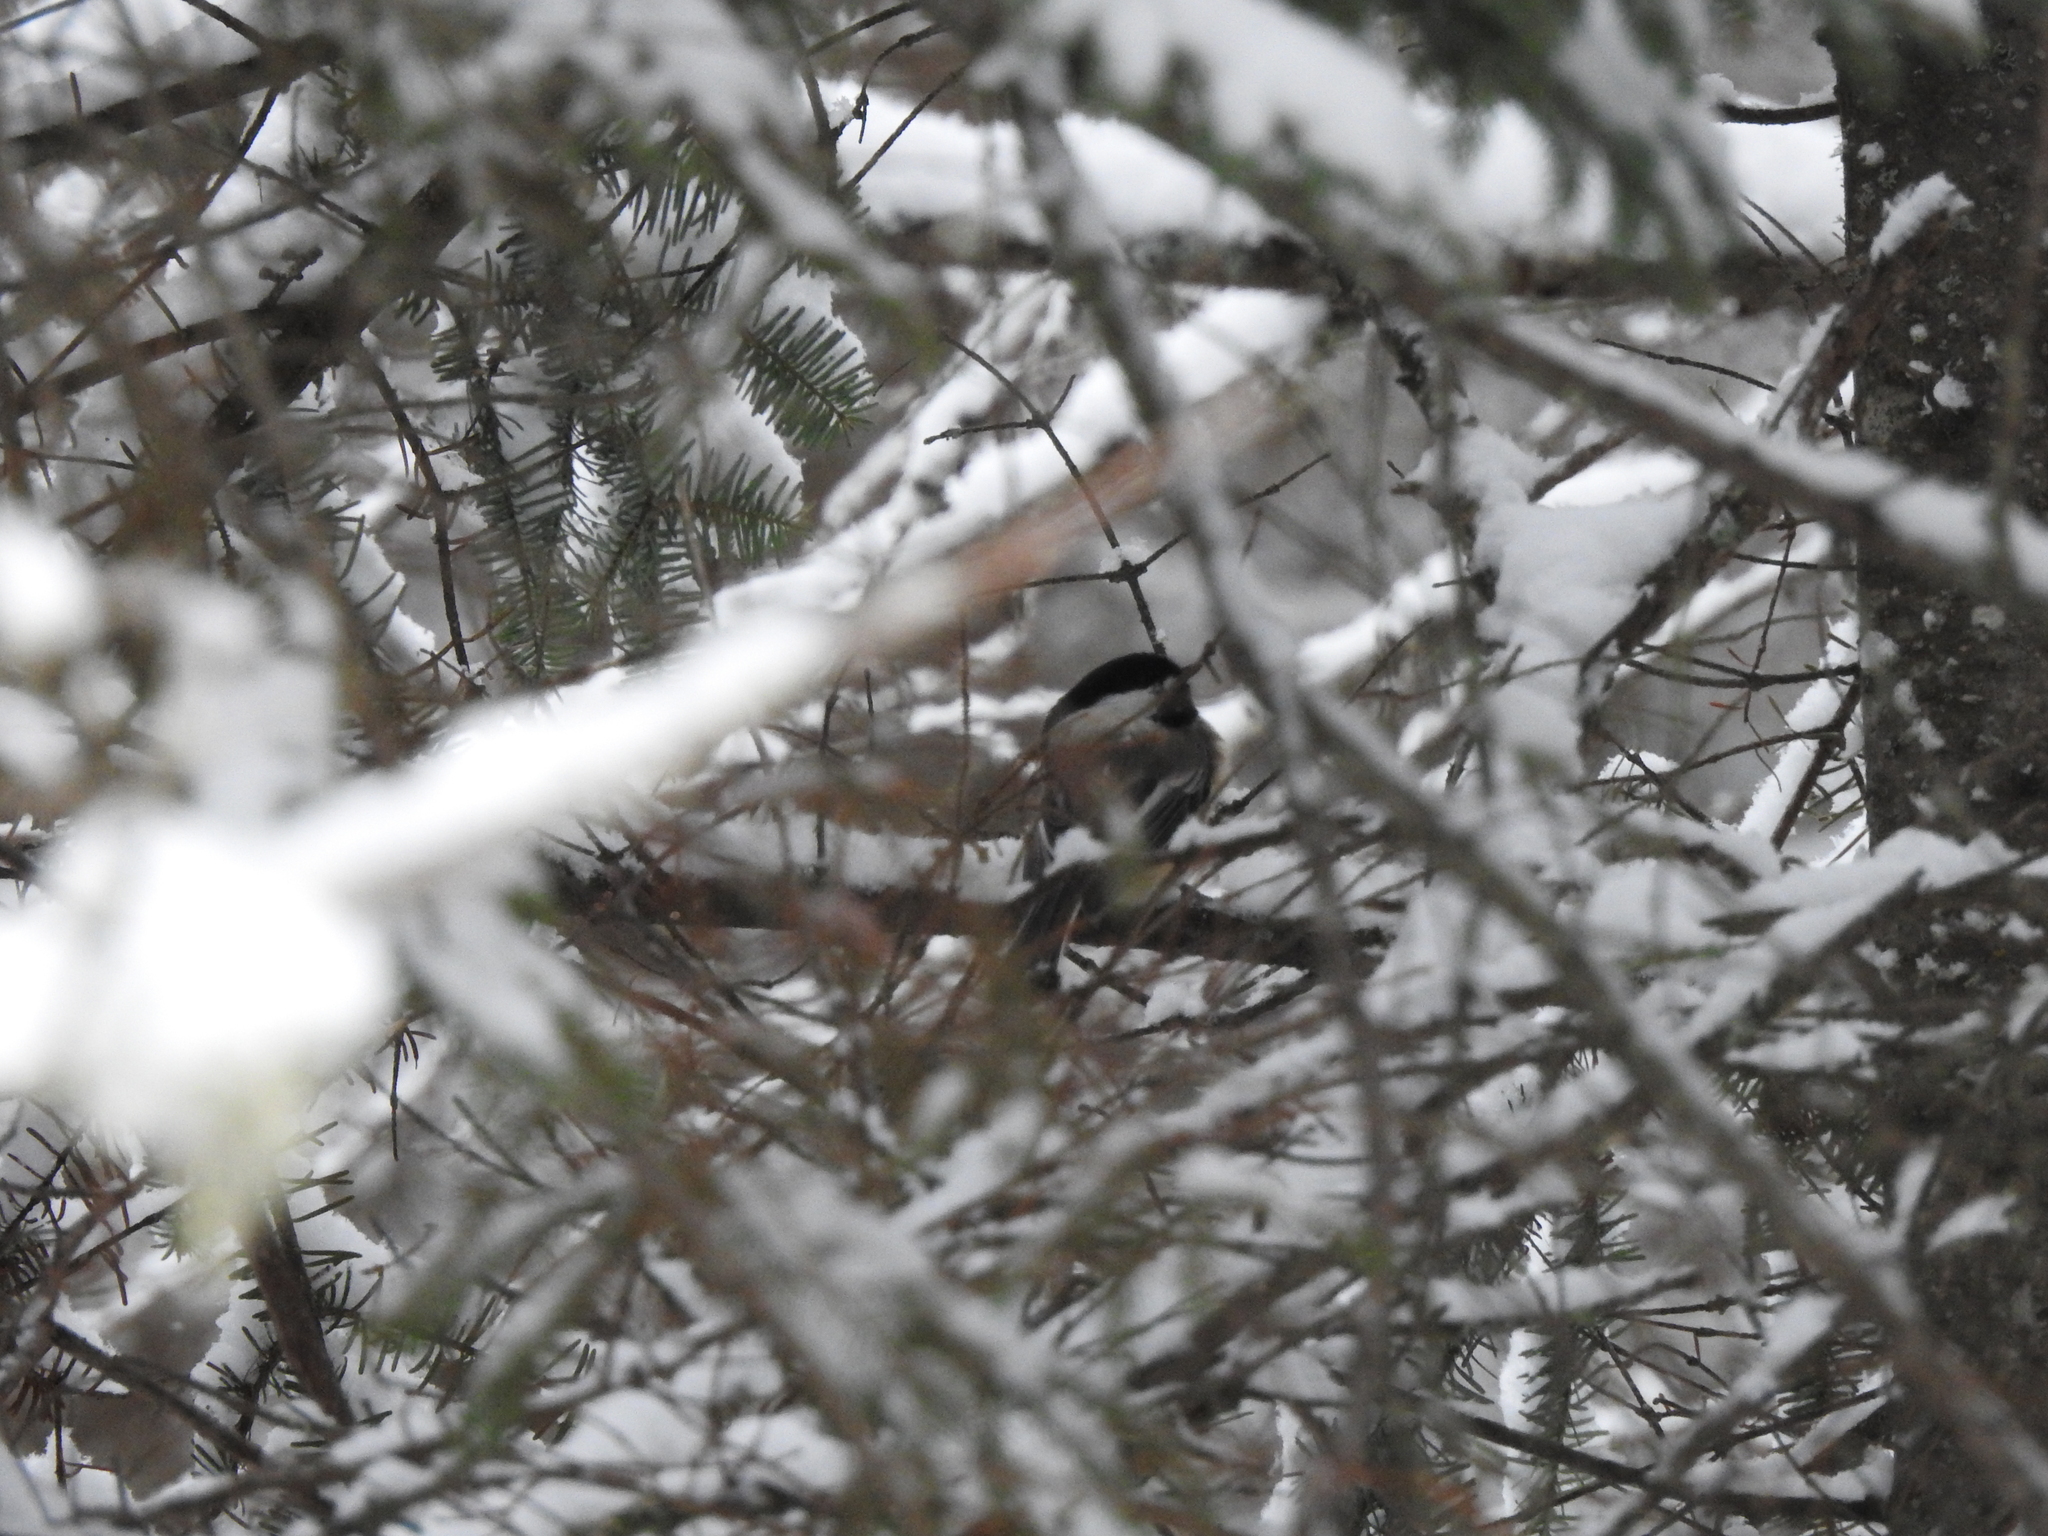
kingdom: Animalia
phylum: Chordata
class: Aves
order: Passeriformes
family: Paridae
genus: Poecile
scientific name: Poecile atricapillus
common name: Black-capped chickadee
